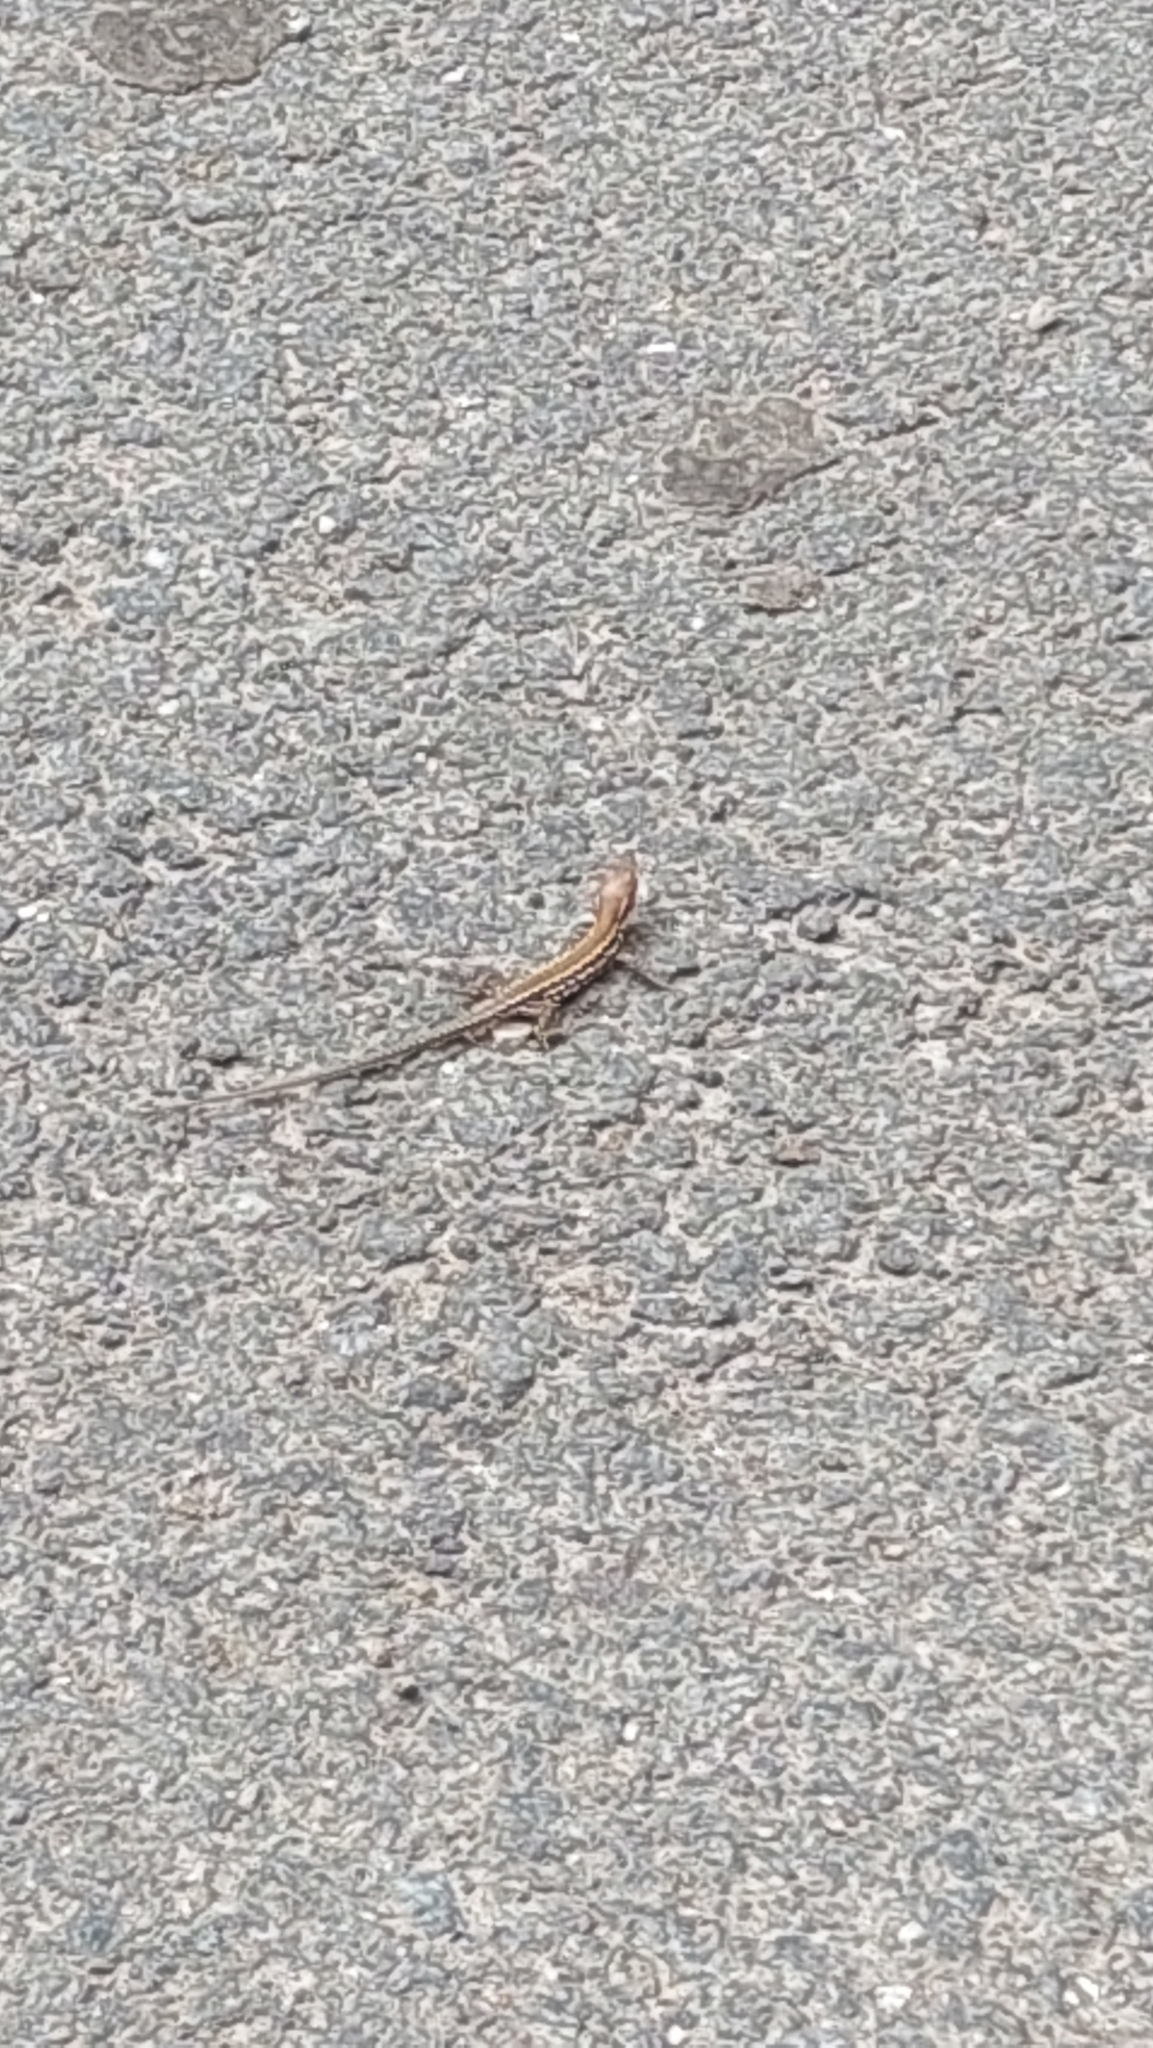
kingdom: Animalia
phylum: Chordata
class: Squamata
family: Lacertidae
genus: Podarcis
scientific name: Podarcis muralis
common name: Common wall lizard
